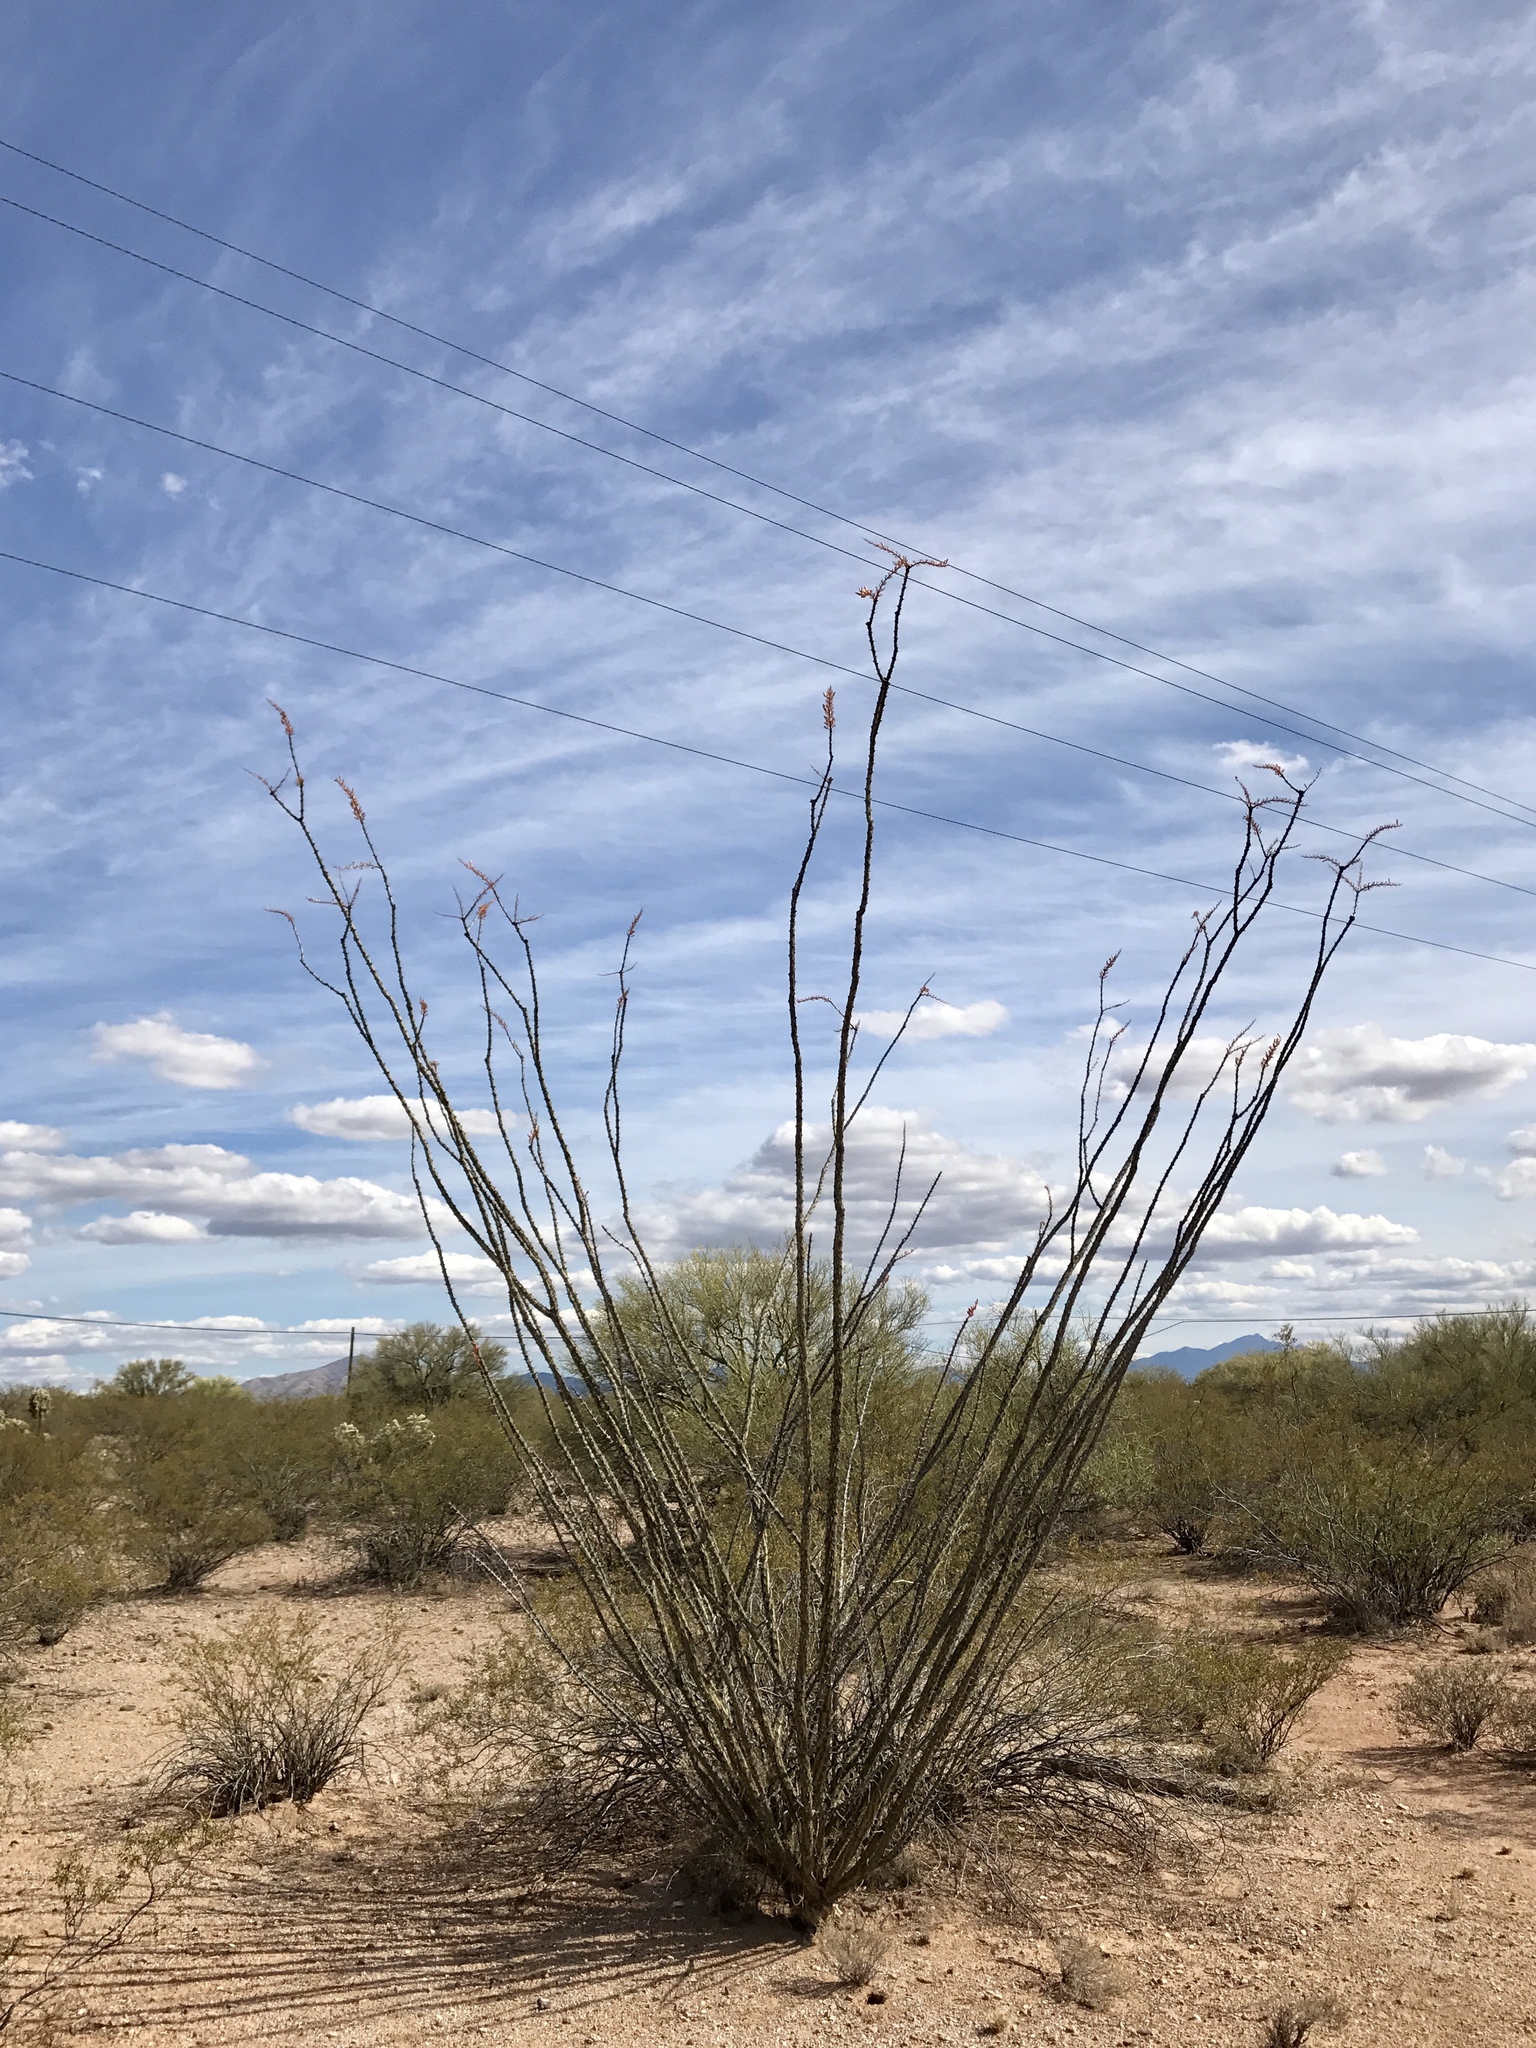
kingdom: Plantae
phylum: Tracheophyta
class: Magnoliopsida
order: Ericales
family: Fouquieriaceae
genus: Fouquieria
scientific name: Fouquieria splendens
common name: Vine-cactus
